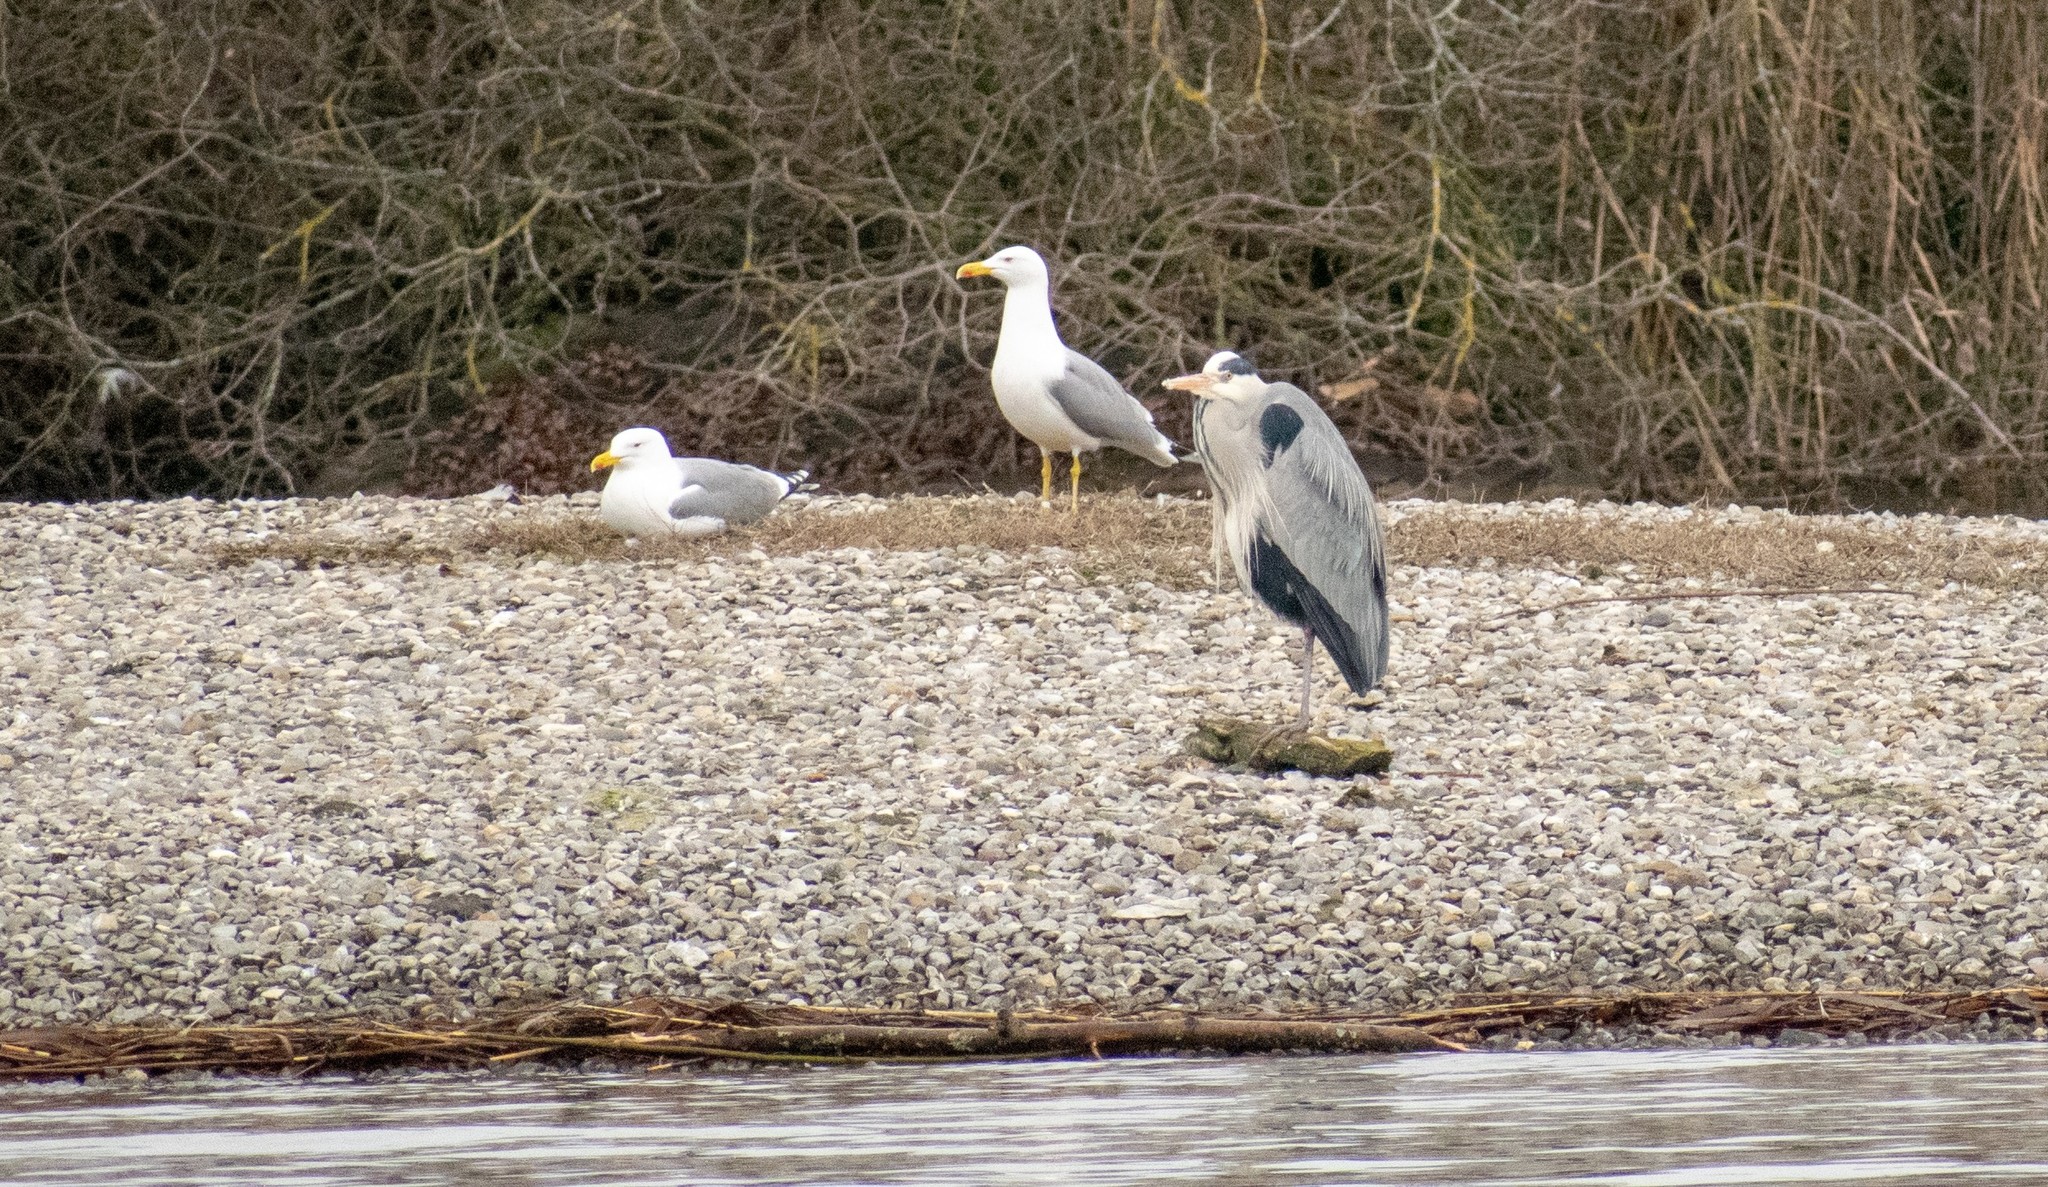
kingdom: Animalia
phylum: Chordata
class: Aves
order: Charadriiformes
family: Laridae
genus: Larus
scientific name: Larus michahellis
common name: Yellow-legged gull
